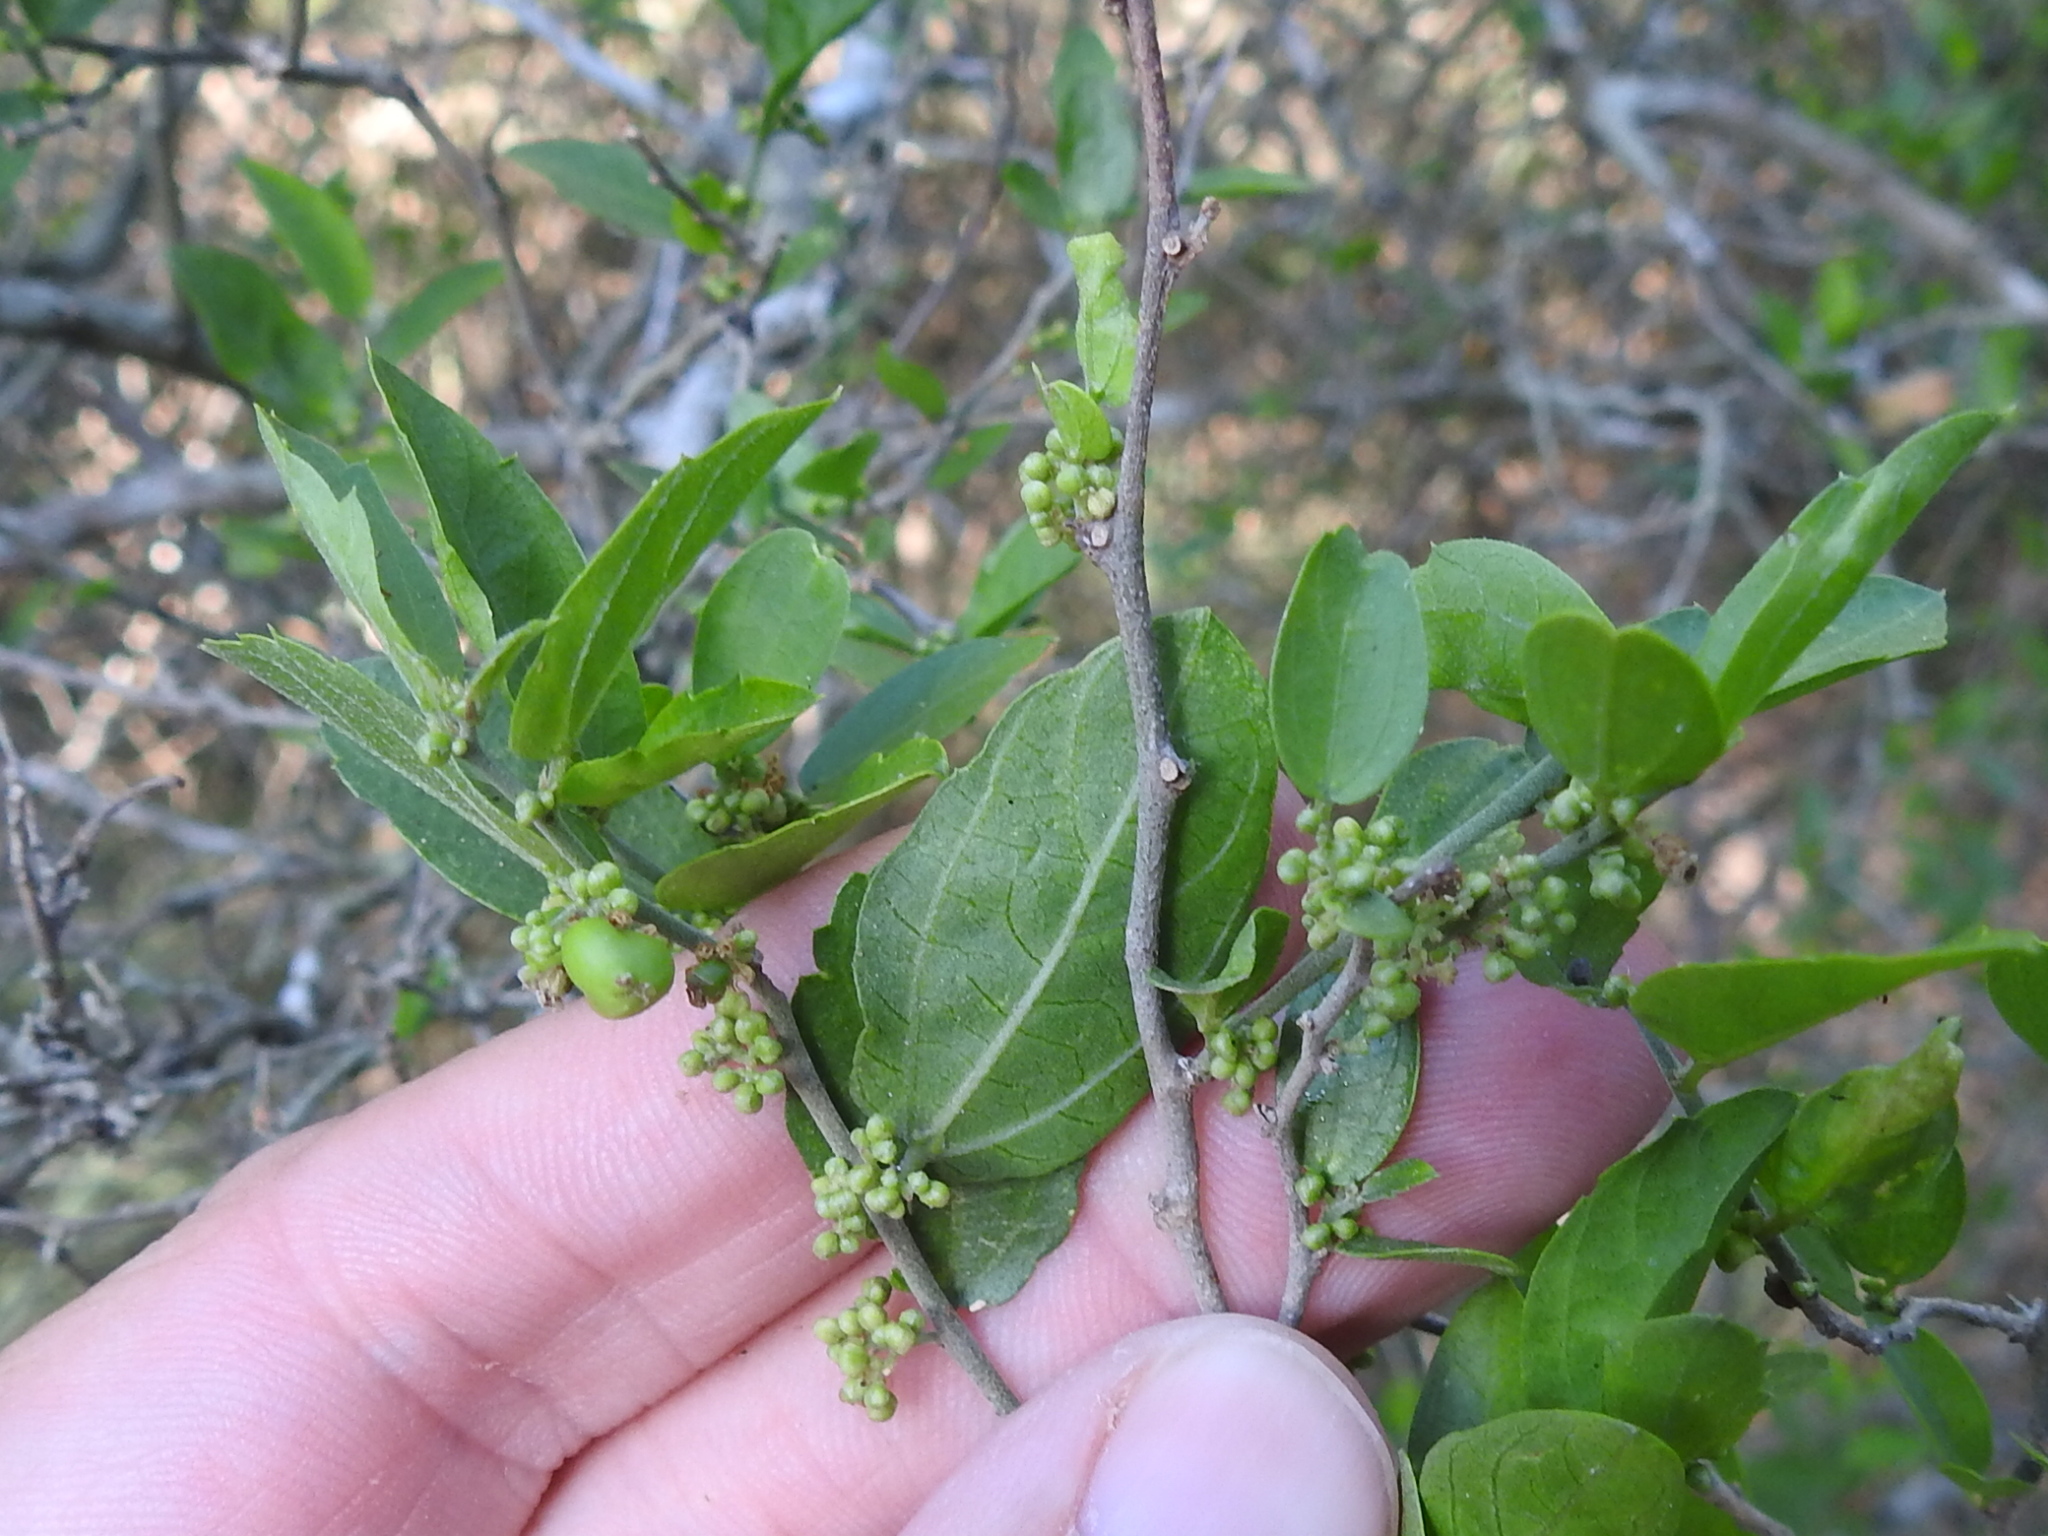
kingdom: Plantae
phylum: Tracheophyta
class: Magnoliopsida
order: Rosales
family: Cannabaceae
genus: Celtis
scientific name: Celtis pallida
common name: Desert hackberry
